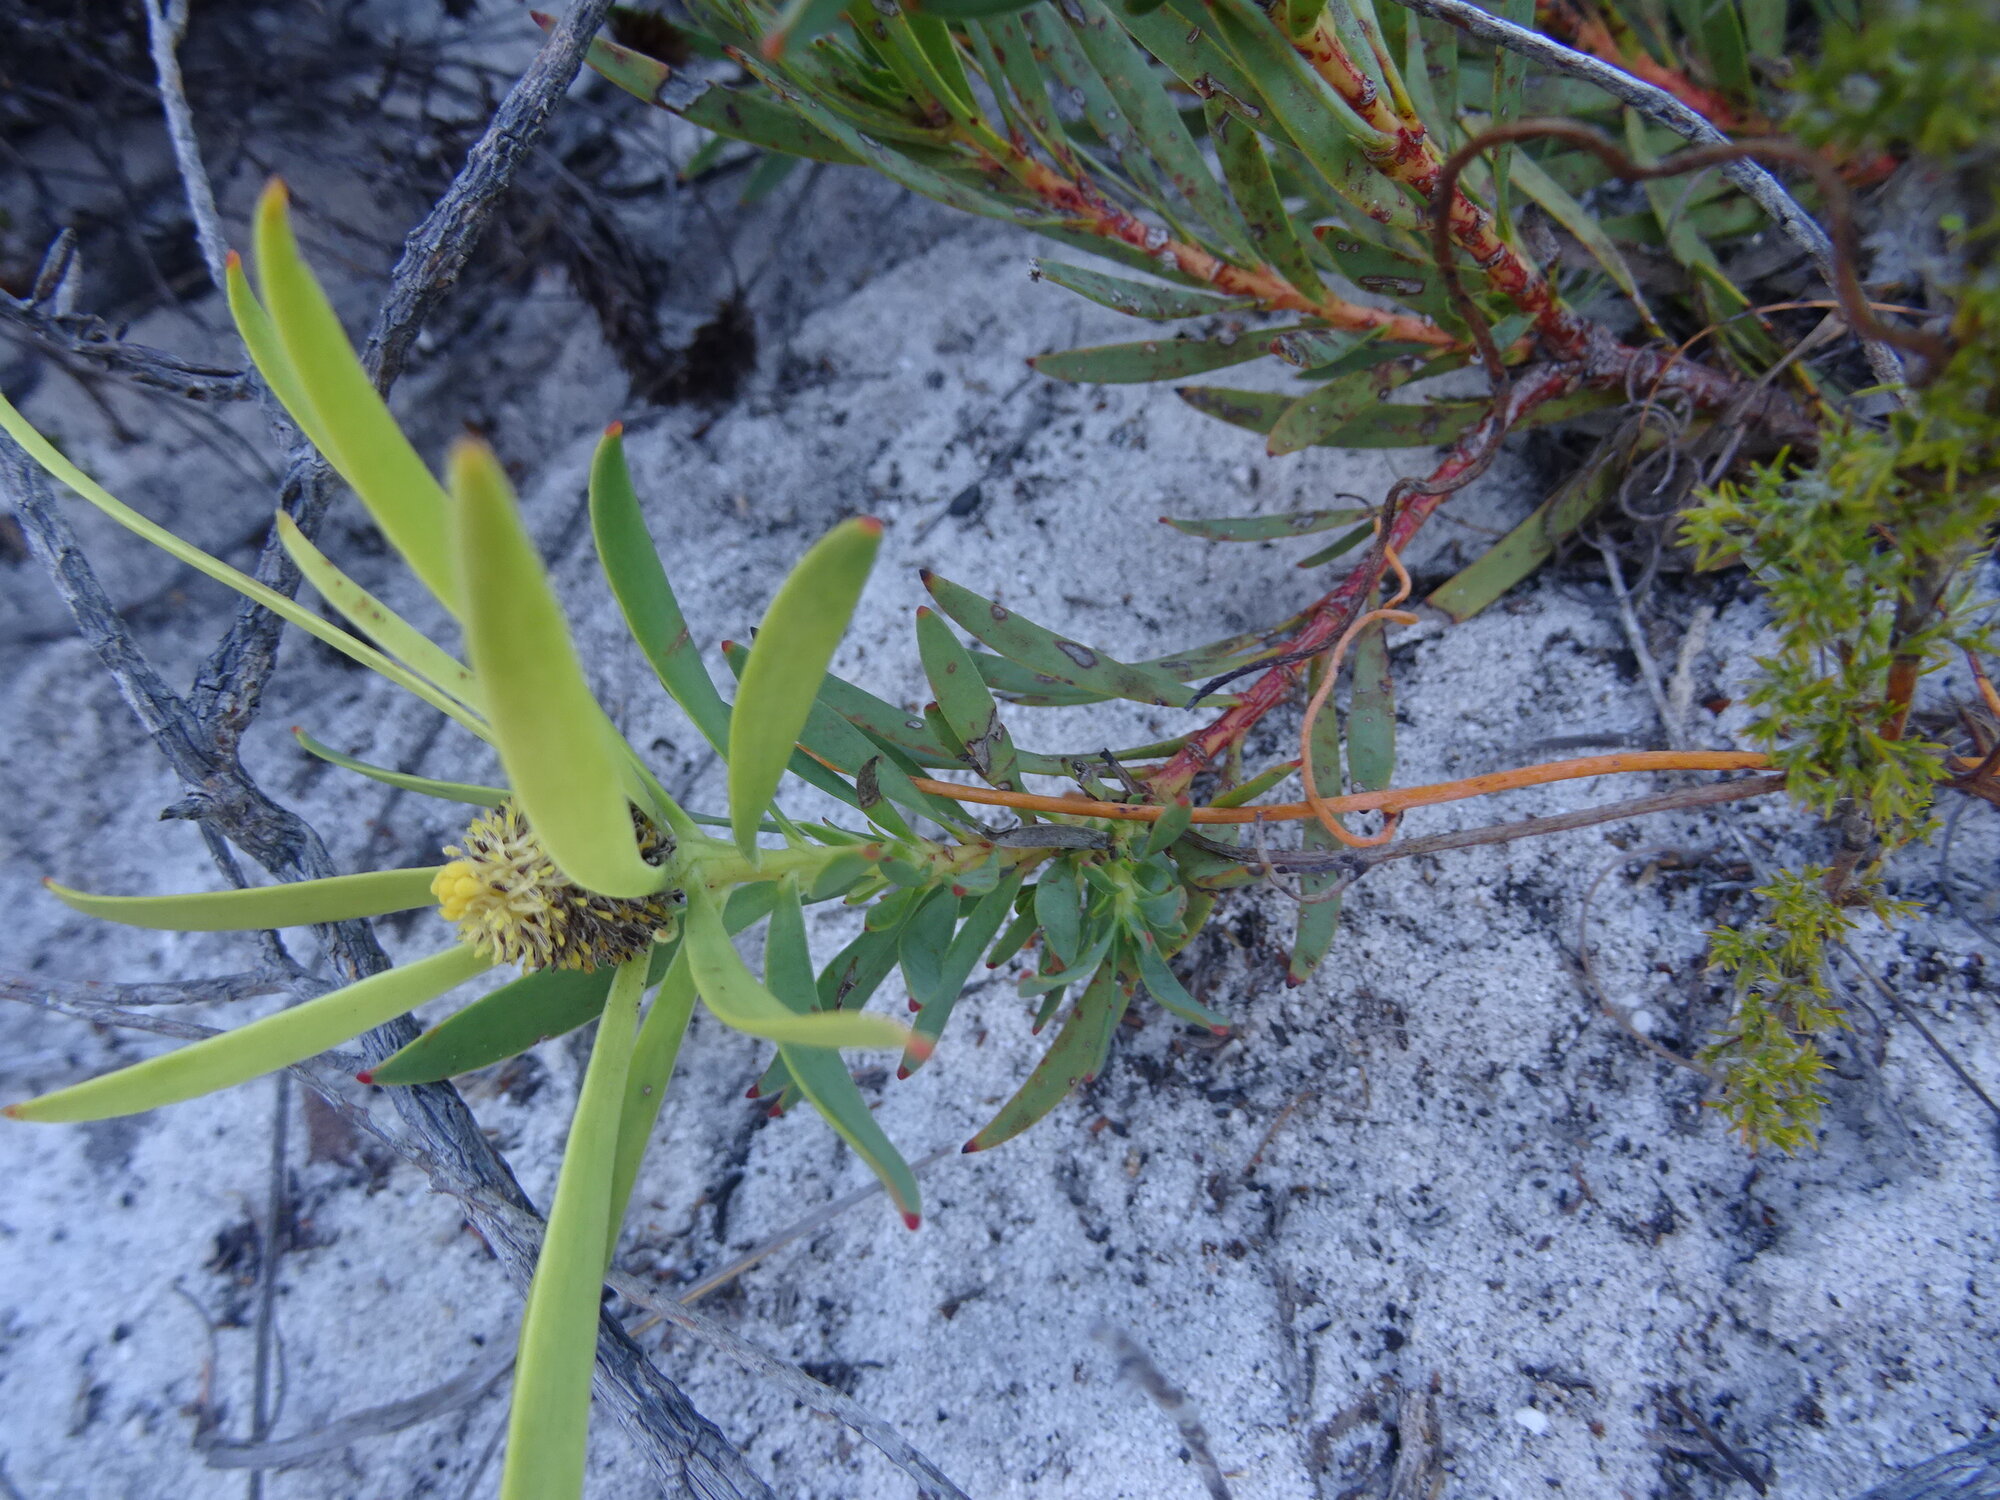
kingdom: Plantae
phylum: Tracheophyta
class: Magnoliopsida
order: Proteales
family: Proteaceae
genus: Leucadendron
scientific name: Leucadendron salignum
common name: Common sunshine conebush
